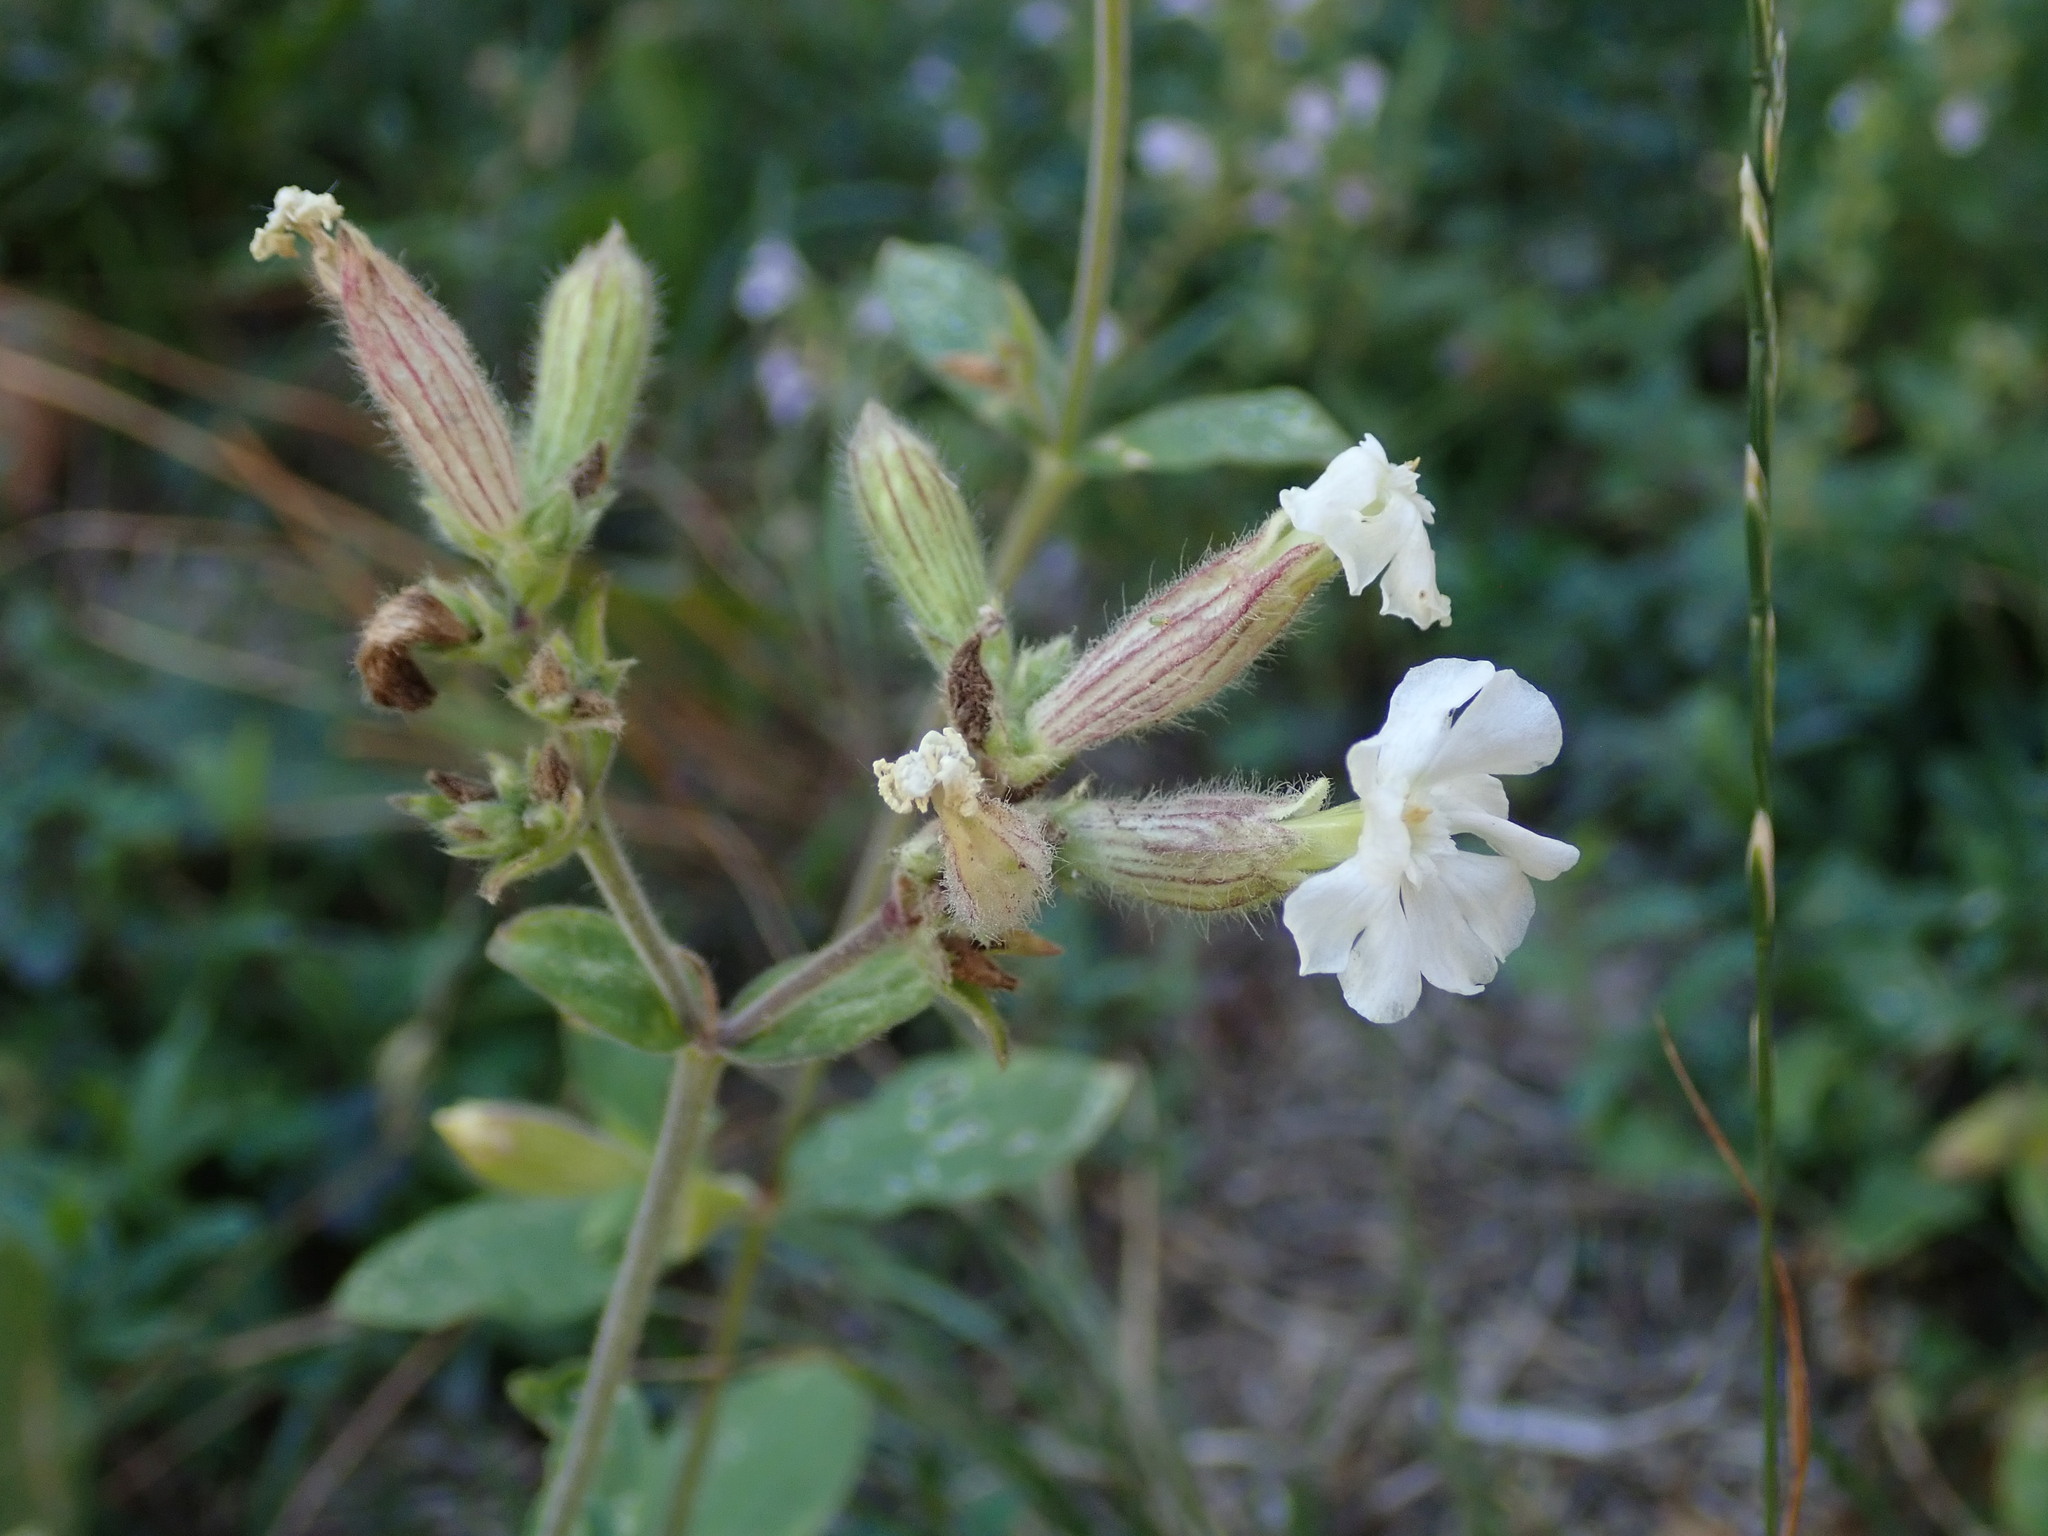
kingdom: Plantae
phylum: Tracheophyta
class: Magnoliopsida
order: Caryophyllales
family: Caryophyllaceae
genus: Silene
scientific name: Silene latifolia
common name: White campion
